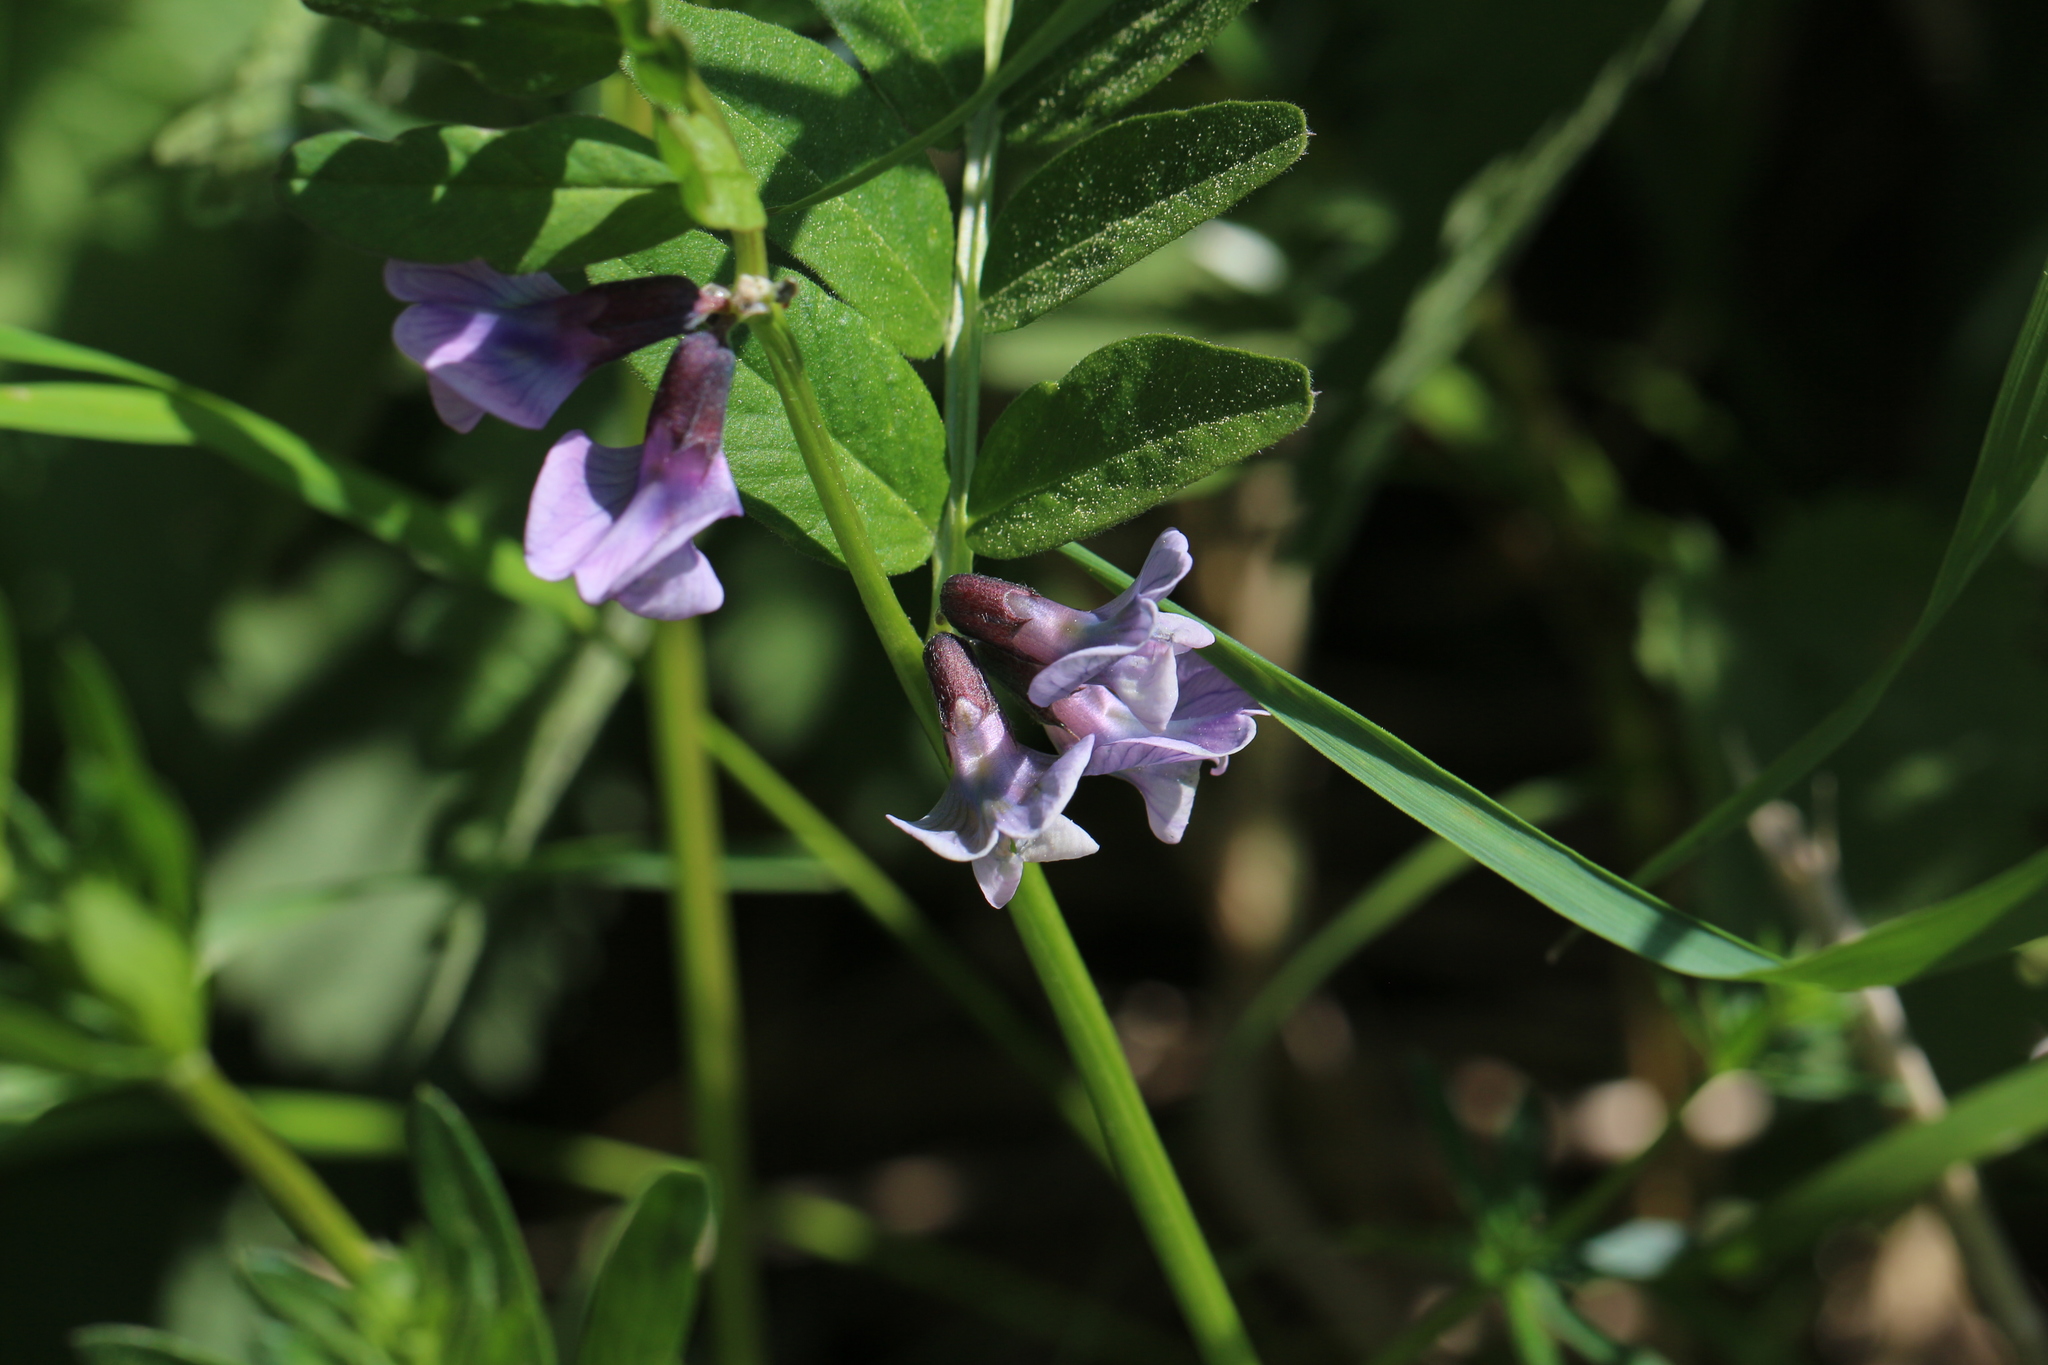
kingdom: Plantae
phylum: Tracheophyta
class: Magnoliopsida
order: Fabales
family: Fabaceae
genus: Vicia
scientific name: Vicia sativa
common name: Garden vetch
